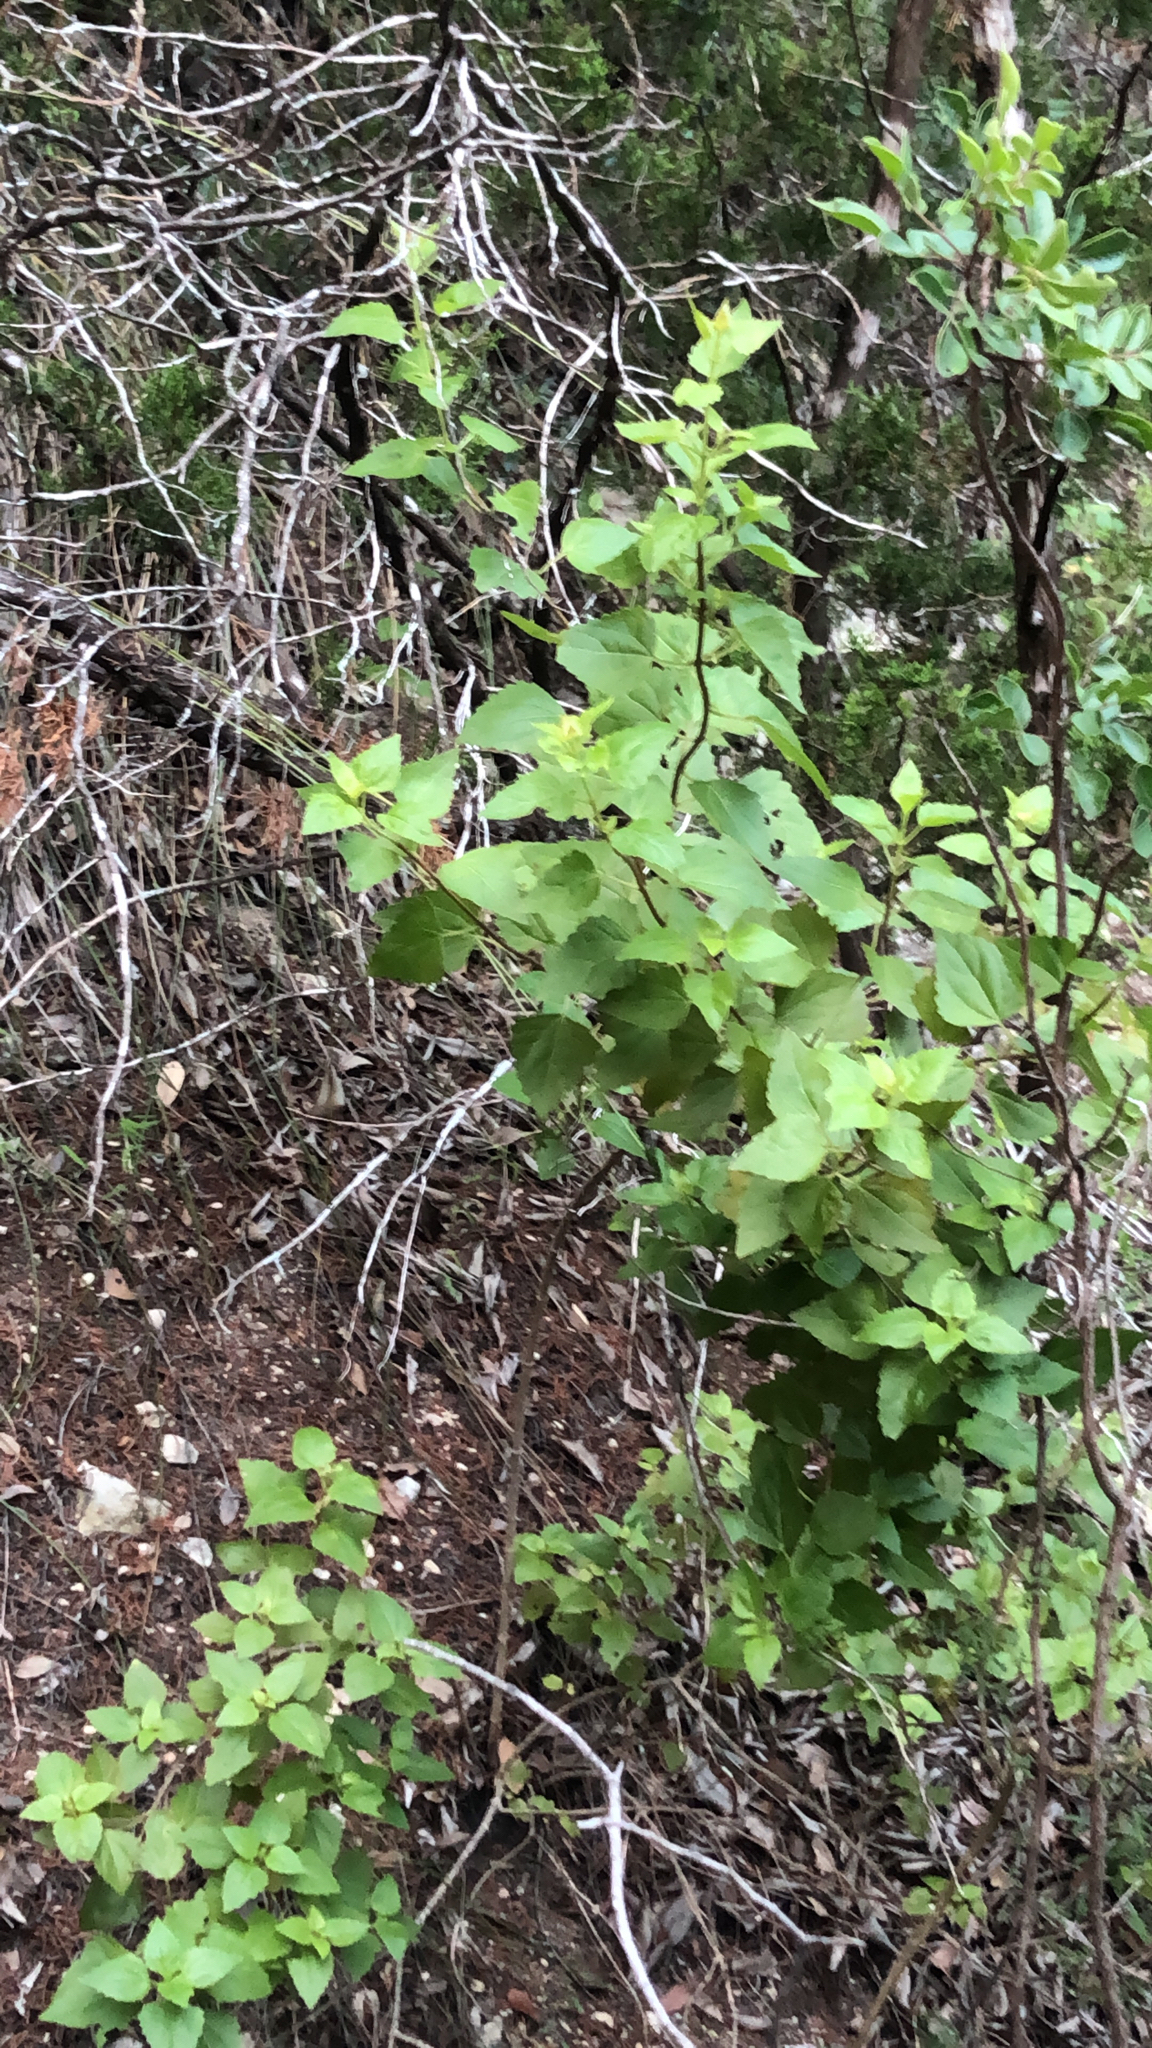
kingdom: Plantae
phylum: Tracheophyta
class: Magnoliopsida
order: Asterales
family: Asteraceae
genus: Ageratina
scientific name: Ageratina havanensis
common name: Havana snakeroot
